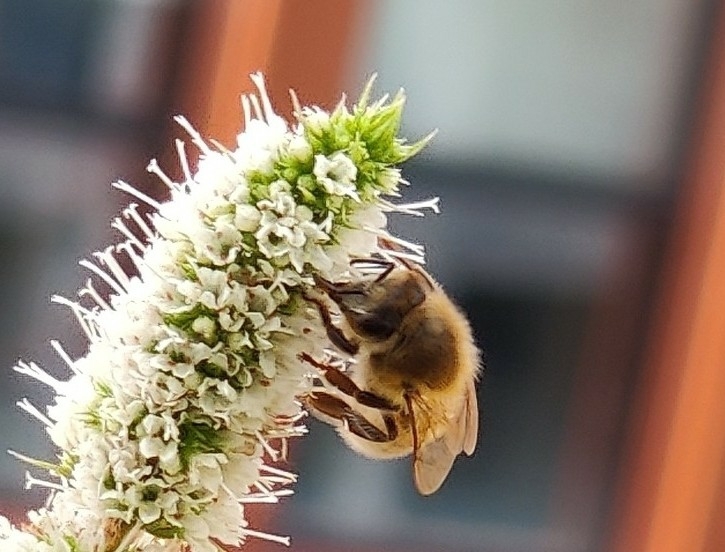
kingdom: Animalia
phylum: Arthropoda
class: Insecta
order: Hymenoptera
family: Apidae
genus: Apis
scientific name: Apis mellifera
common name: Honey bee
